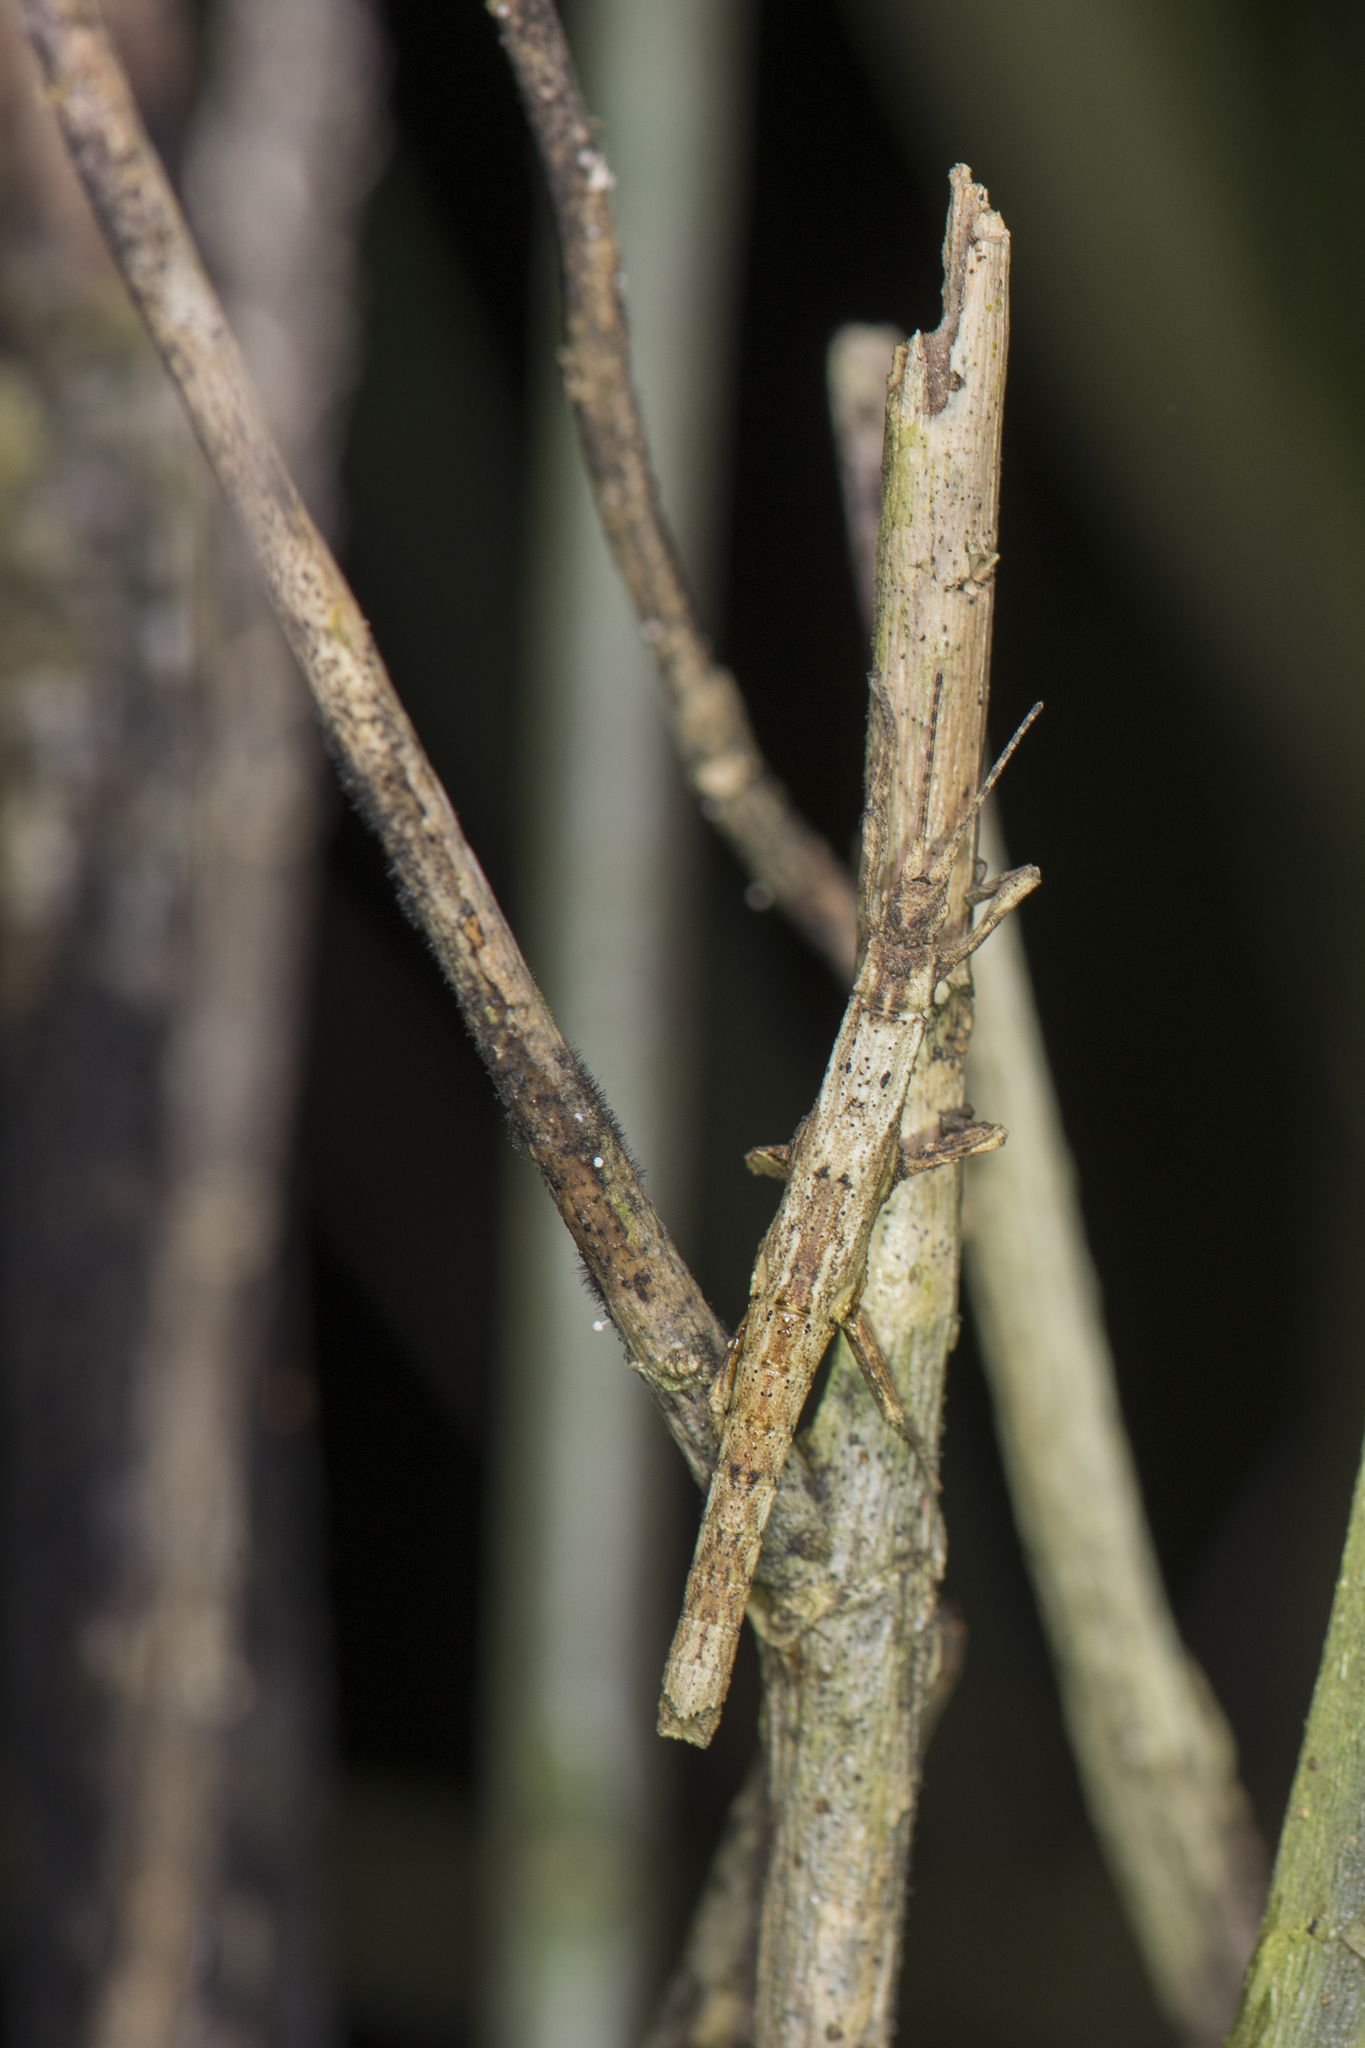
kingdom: Animalia
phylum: Arthropoda
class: Insecta
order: Phasmida
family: Heteropterygidae
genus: Orestes
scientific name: Orestes shirakii
